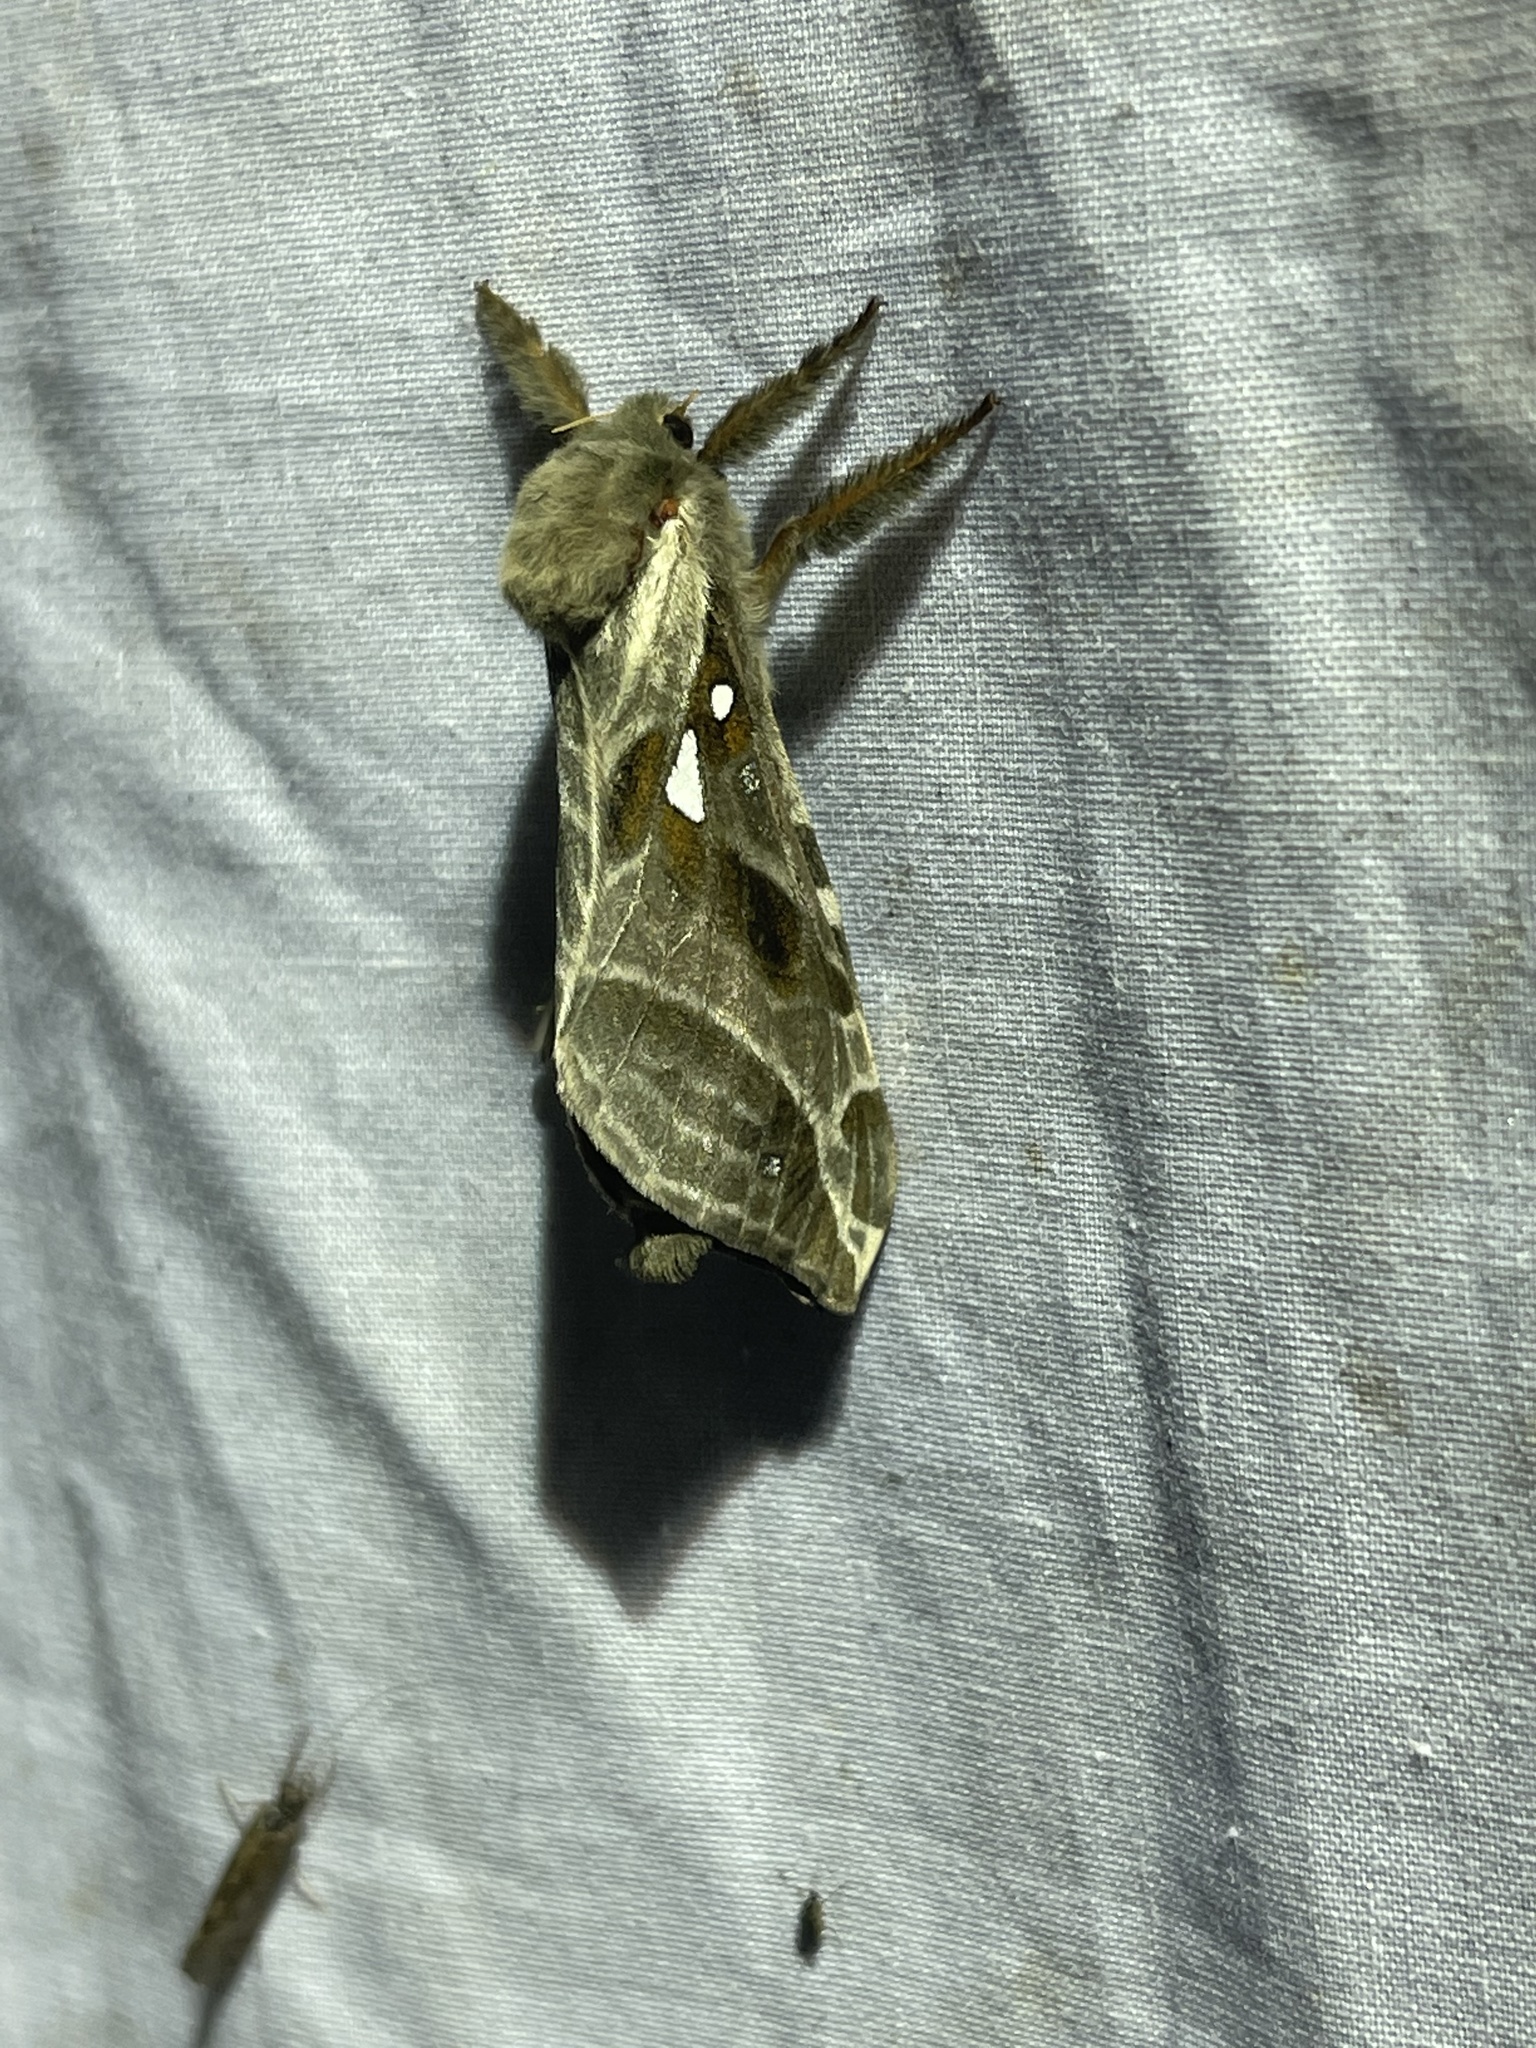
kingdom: Animalia
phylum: Arthropoda
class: Insecta
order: Lepidoptera
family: Hepialidae
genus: Sthenopis
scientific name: Sthenopis argenteomaculatus
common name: Silver-spotted ghost moth
